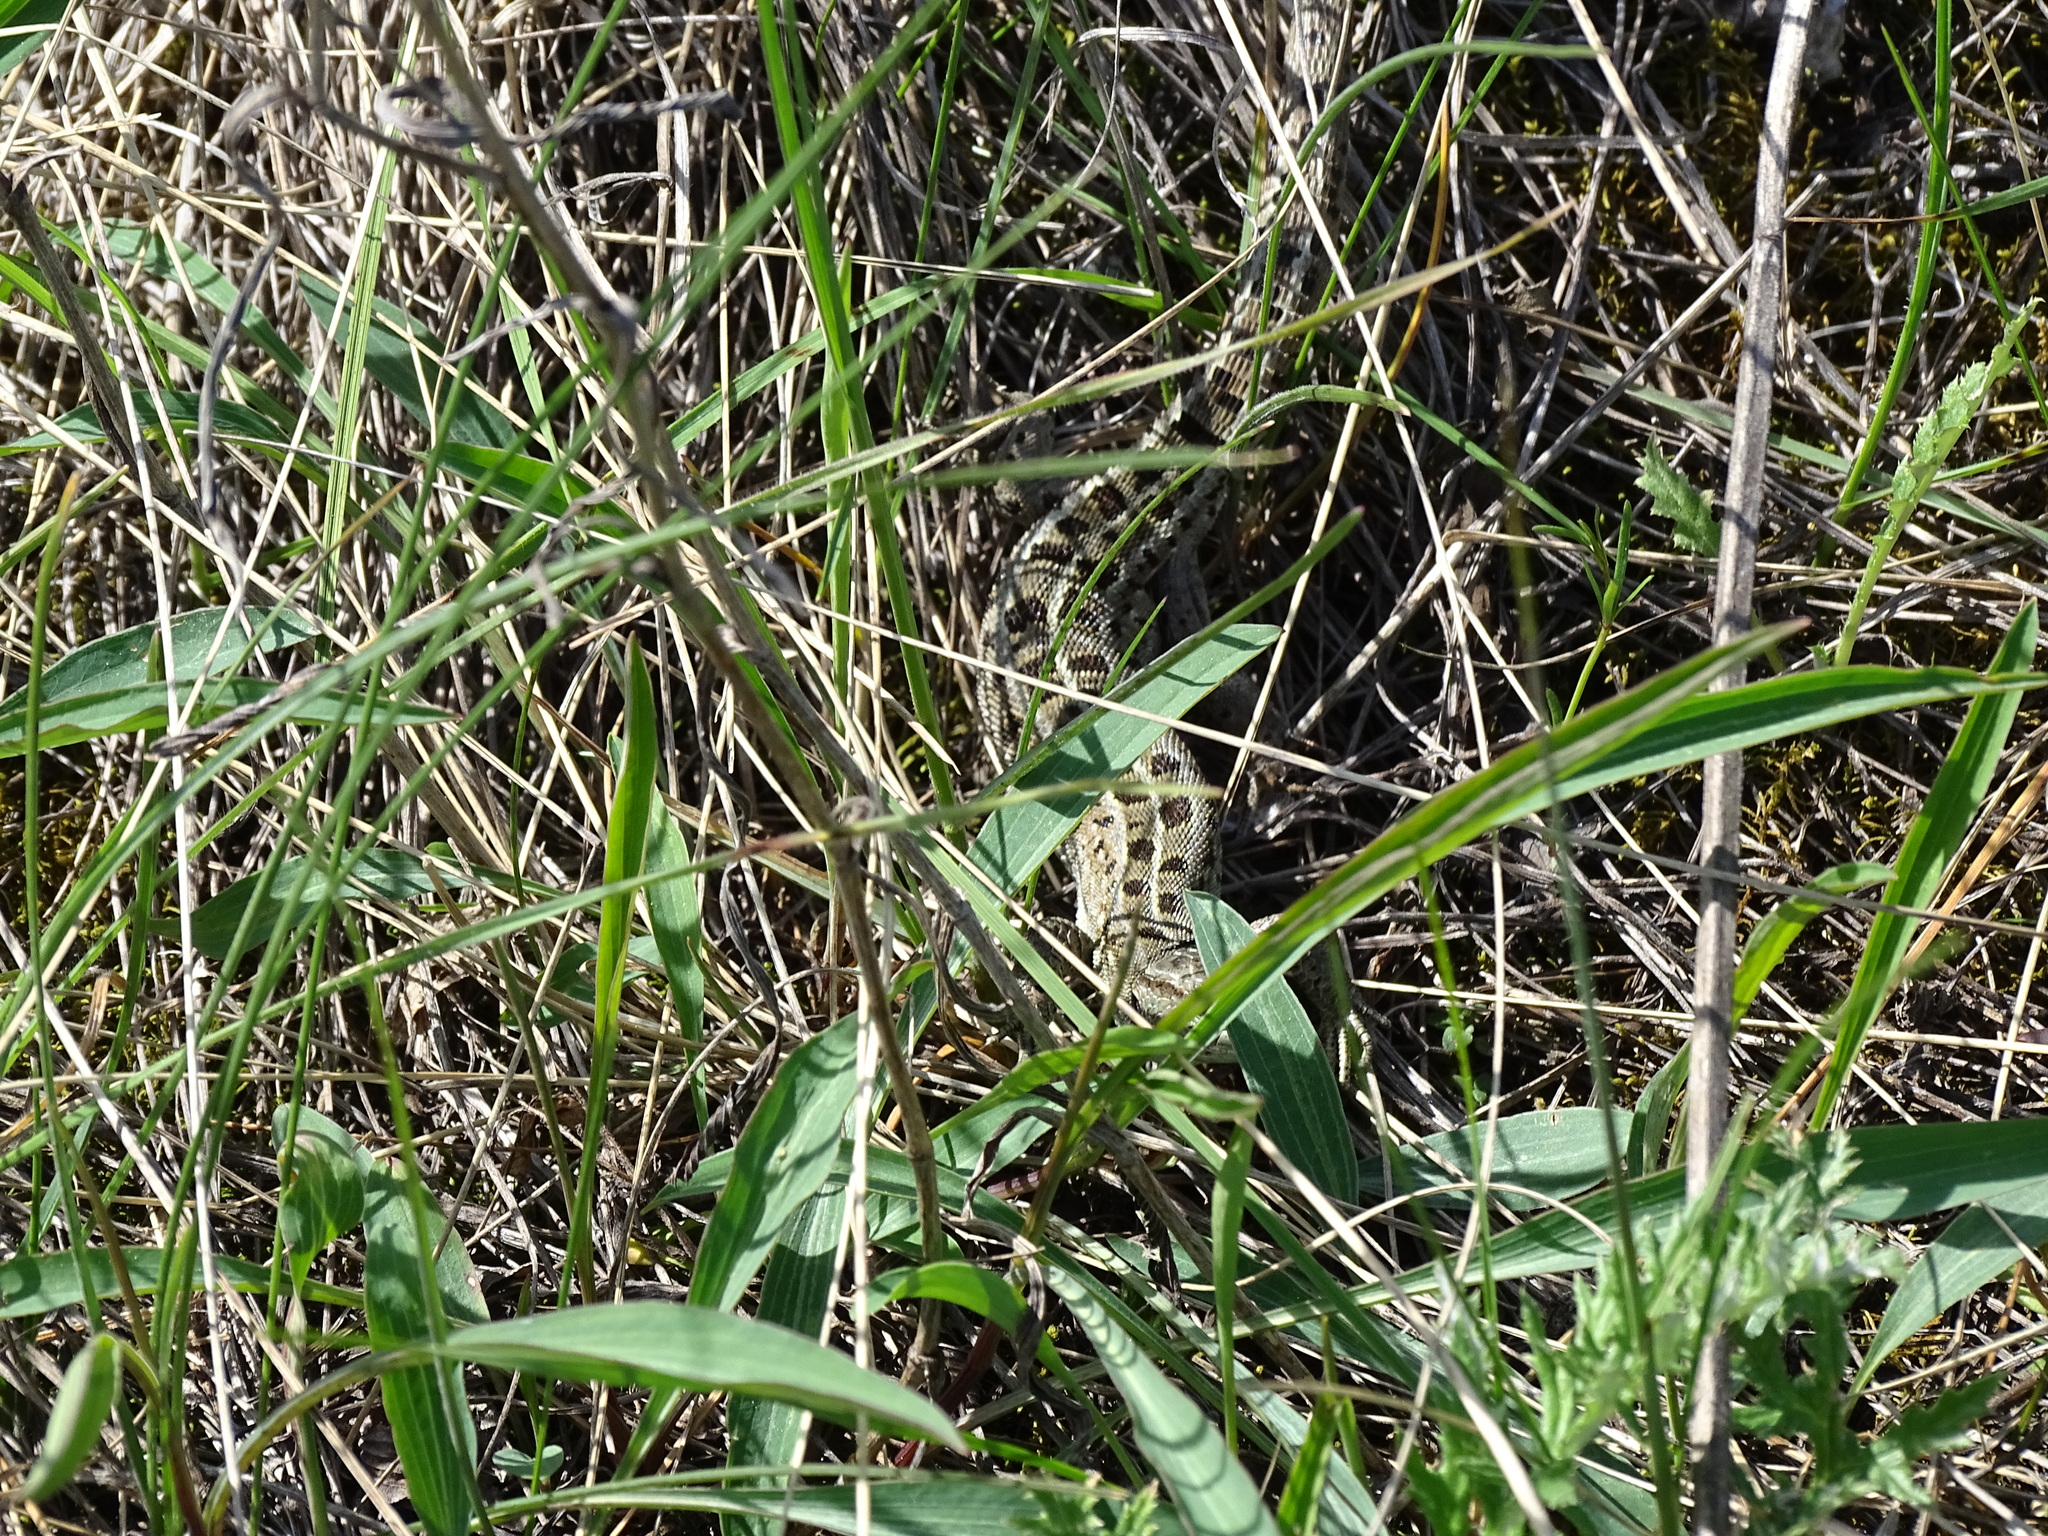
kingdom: Animalia
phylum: Chordata
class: Squamata
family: Lacertidae
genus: Lacerta
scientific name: Lacerta agilis
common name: Sand lizard
